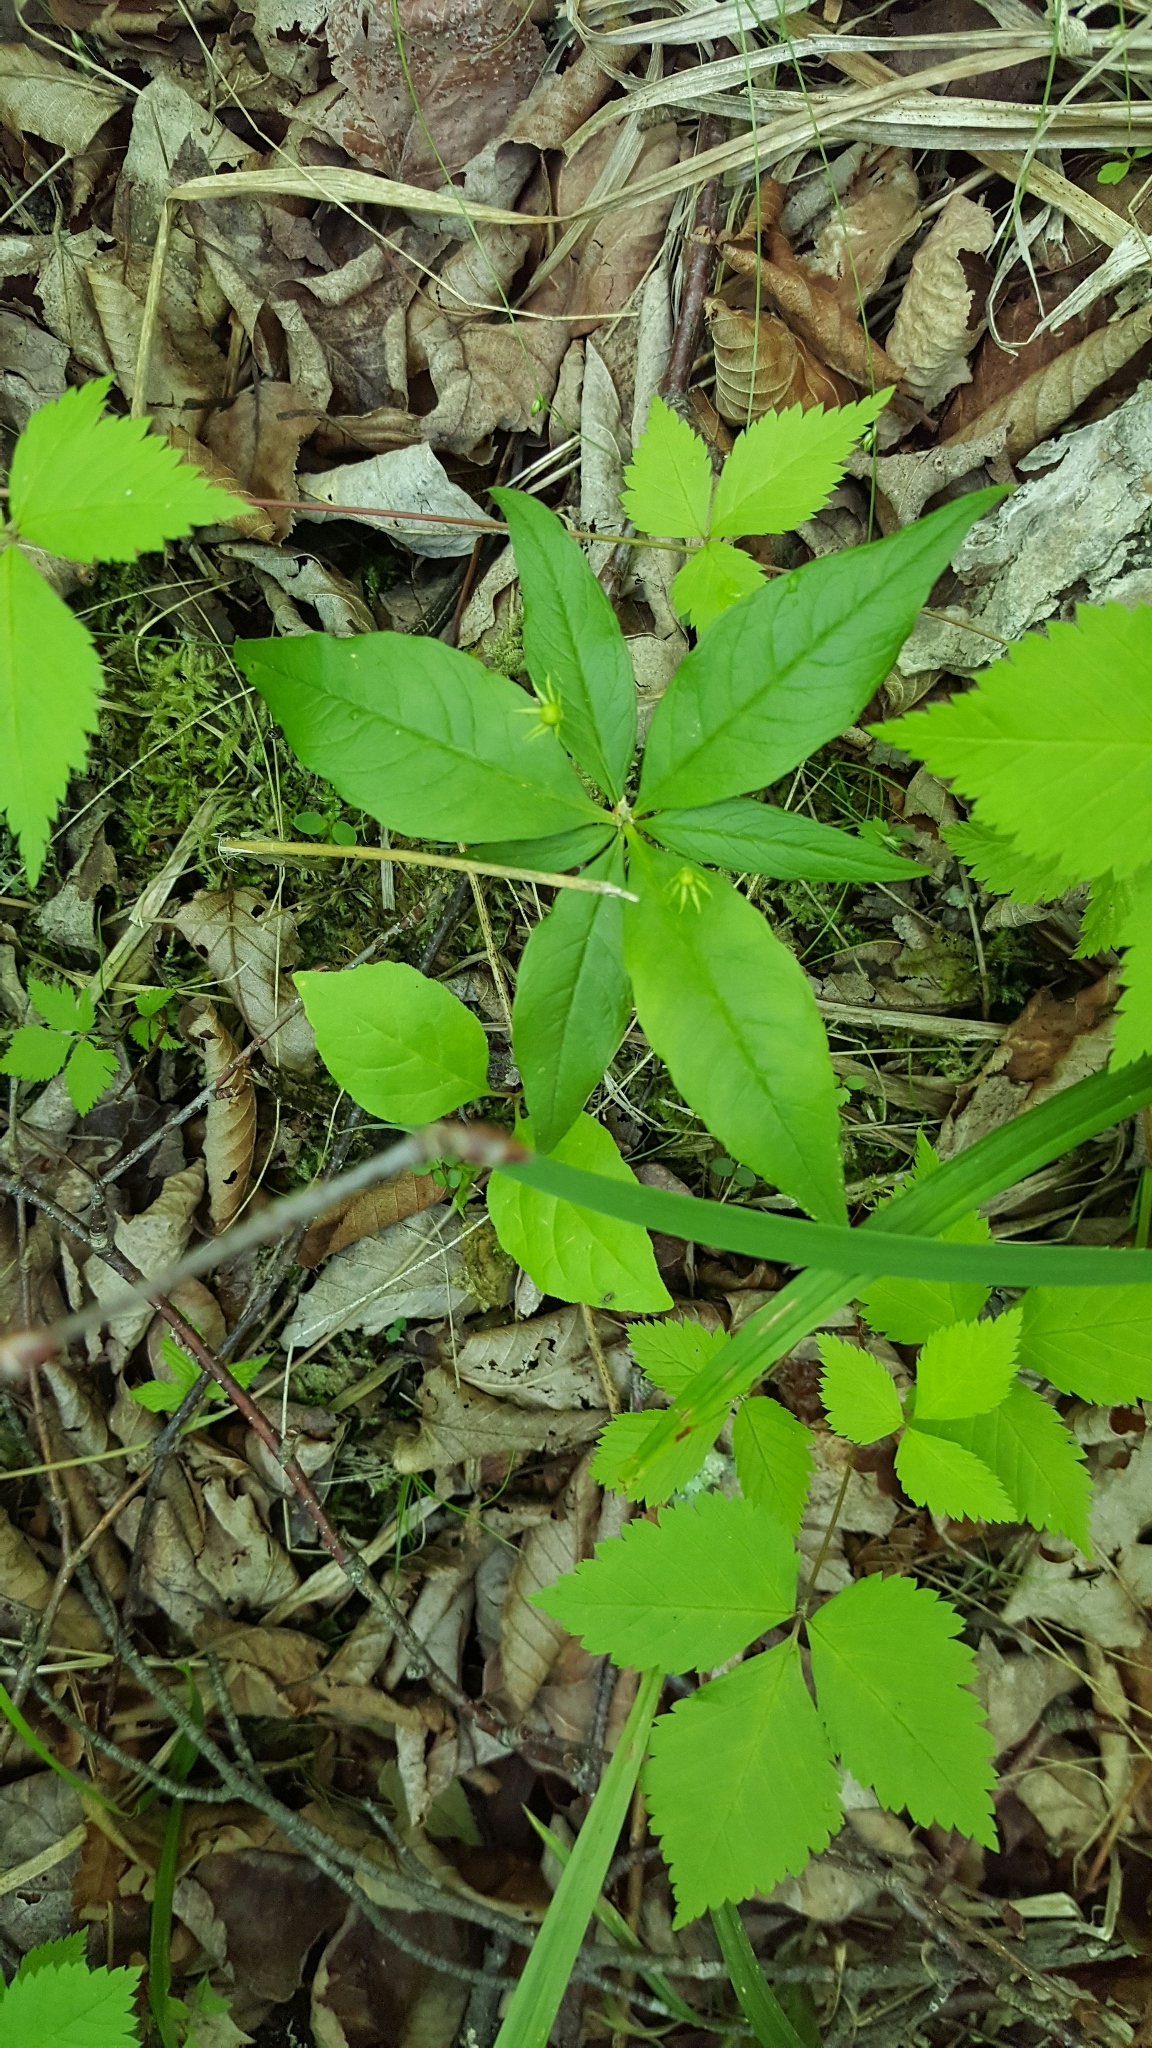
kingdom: Plantae
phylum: Tracheophyta
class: Magnoliopsida
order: Ericales
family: Primulaceae
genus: Lysimachia
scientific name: Lysimachia borealis
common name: American starflower
